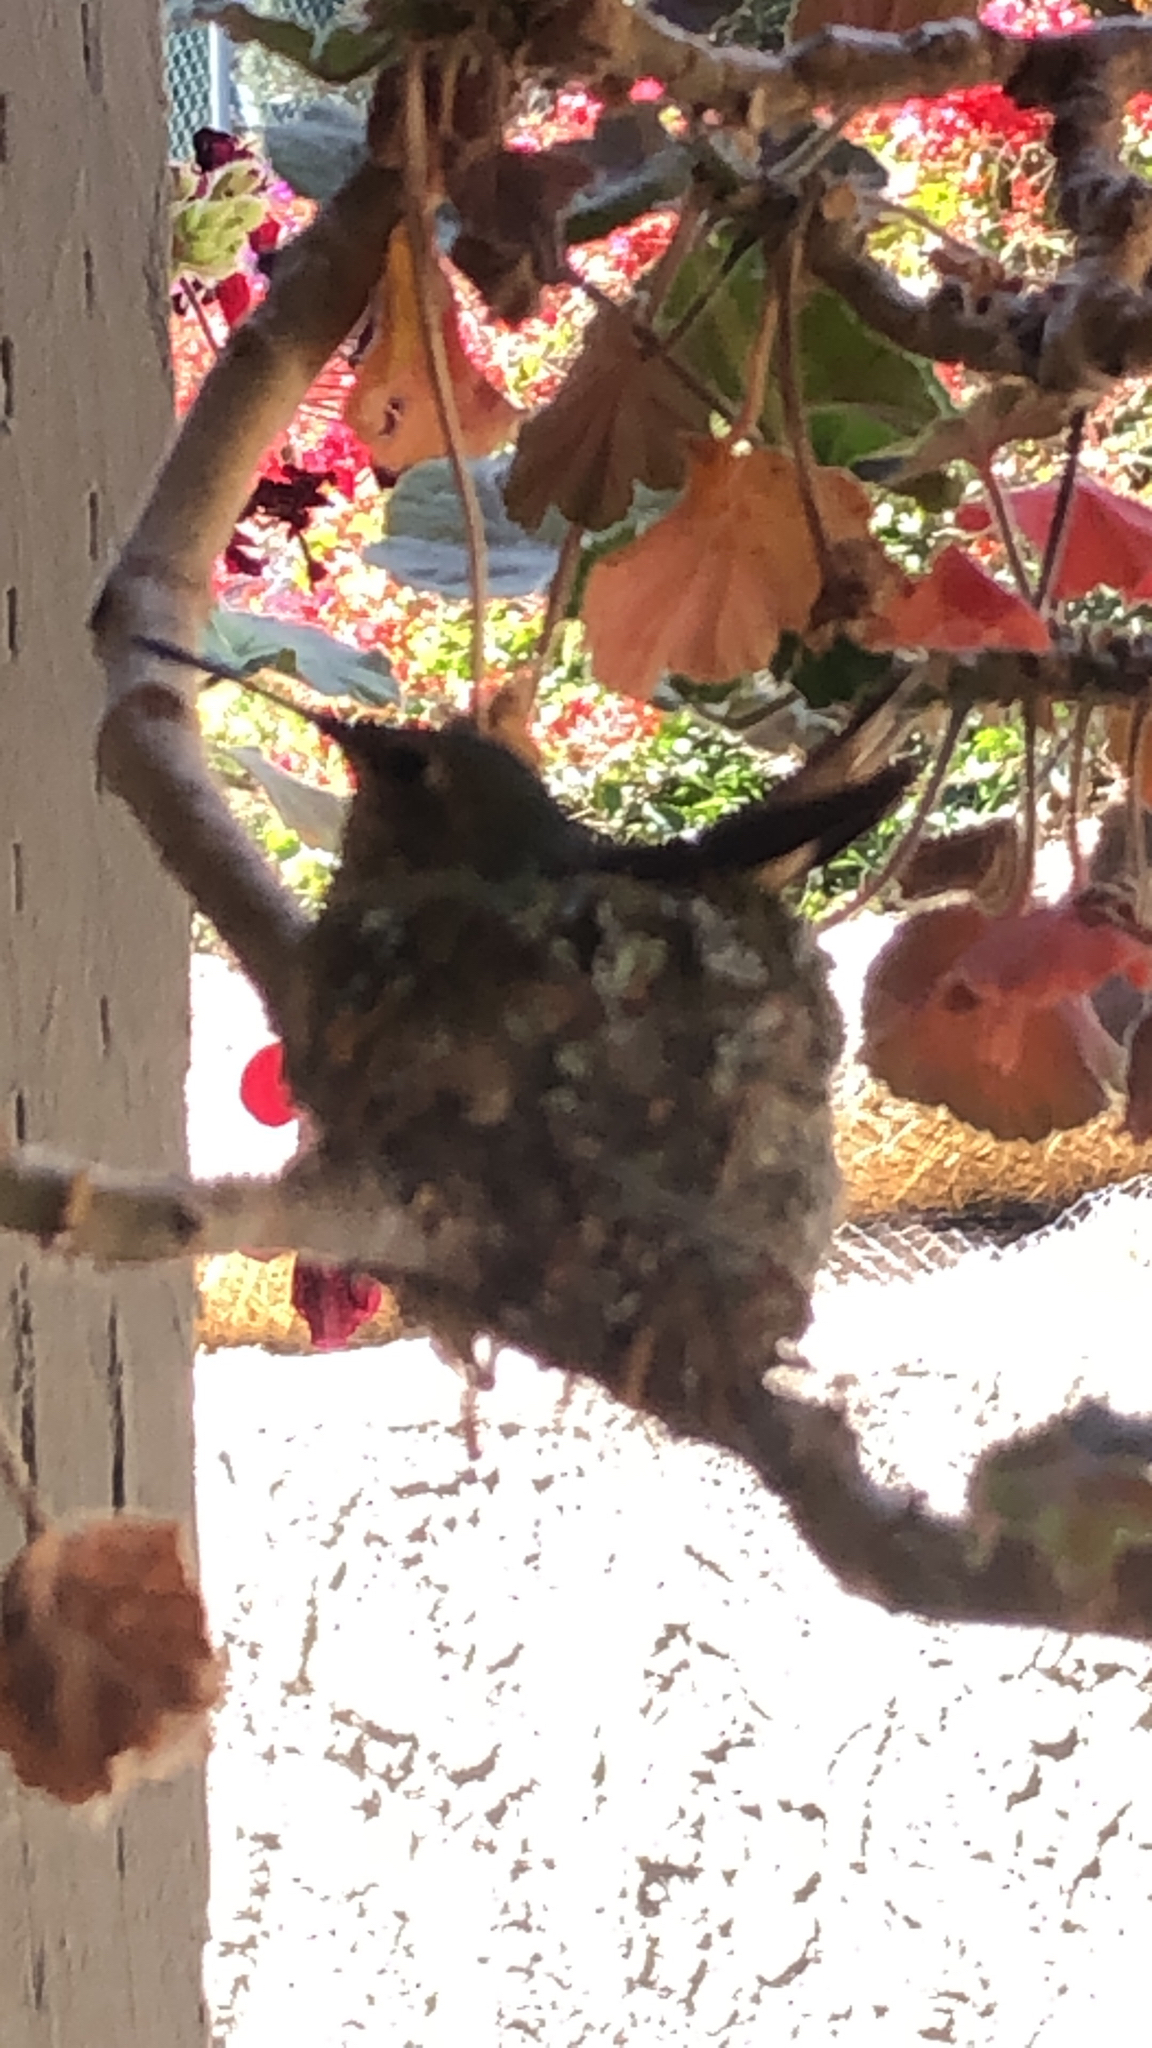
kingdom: Animalia
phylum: Chordata
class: Aves
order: Apodiformes
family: Trochilidae
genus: Calypte
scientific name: Calypte anna
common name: Anna's hummingbird
